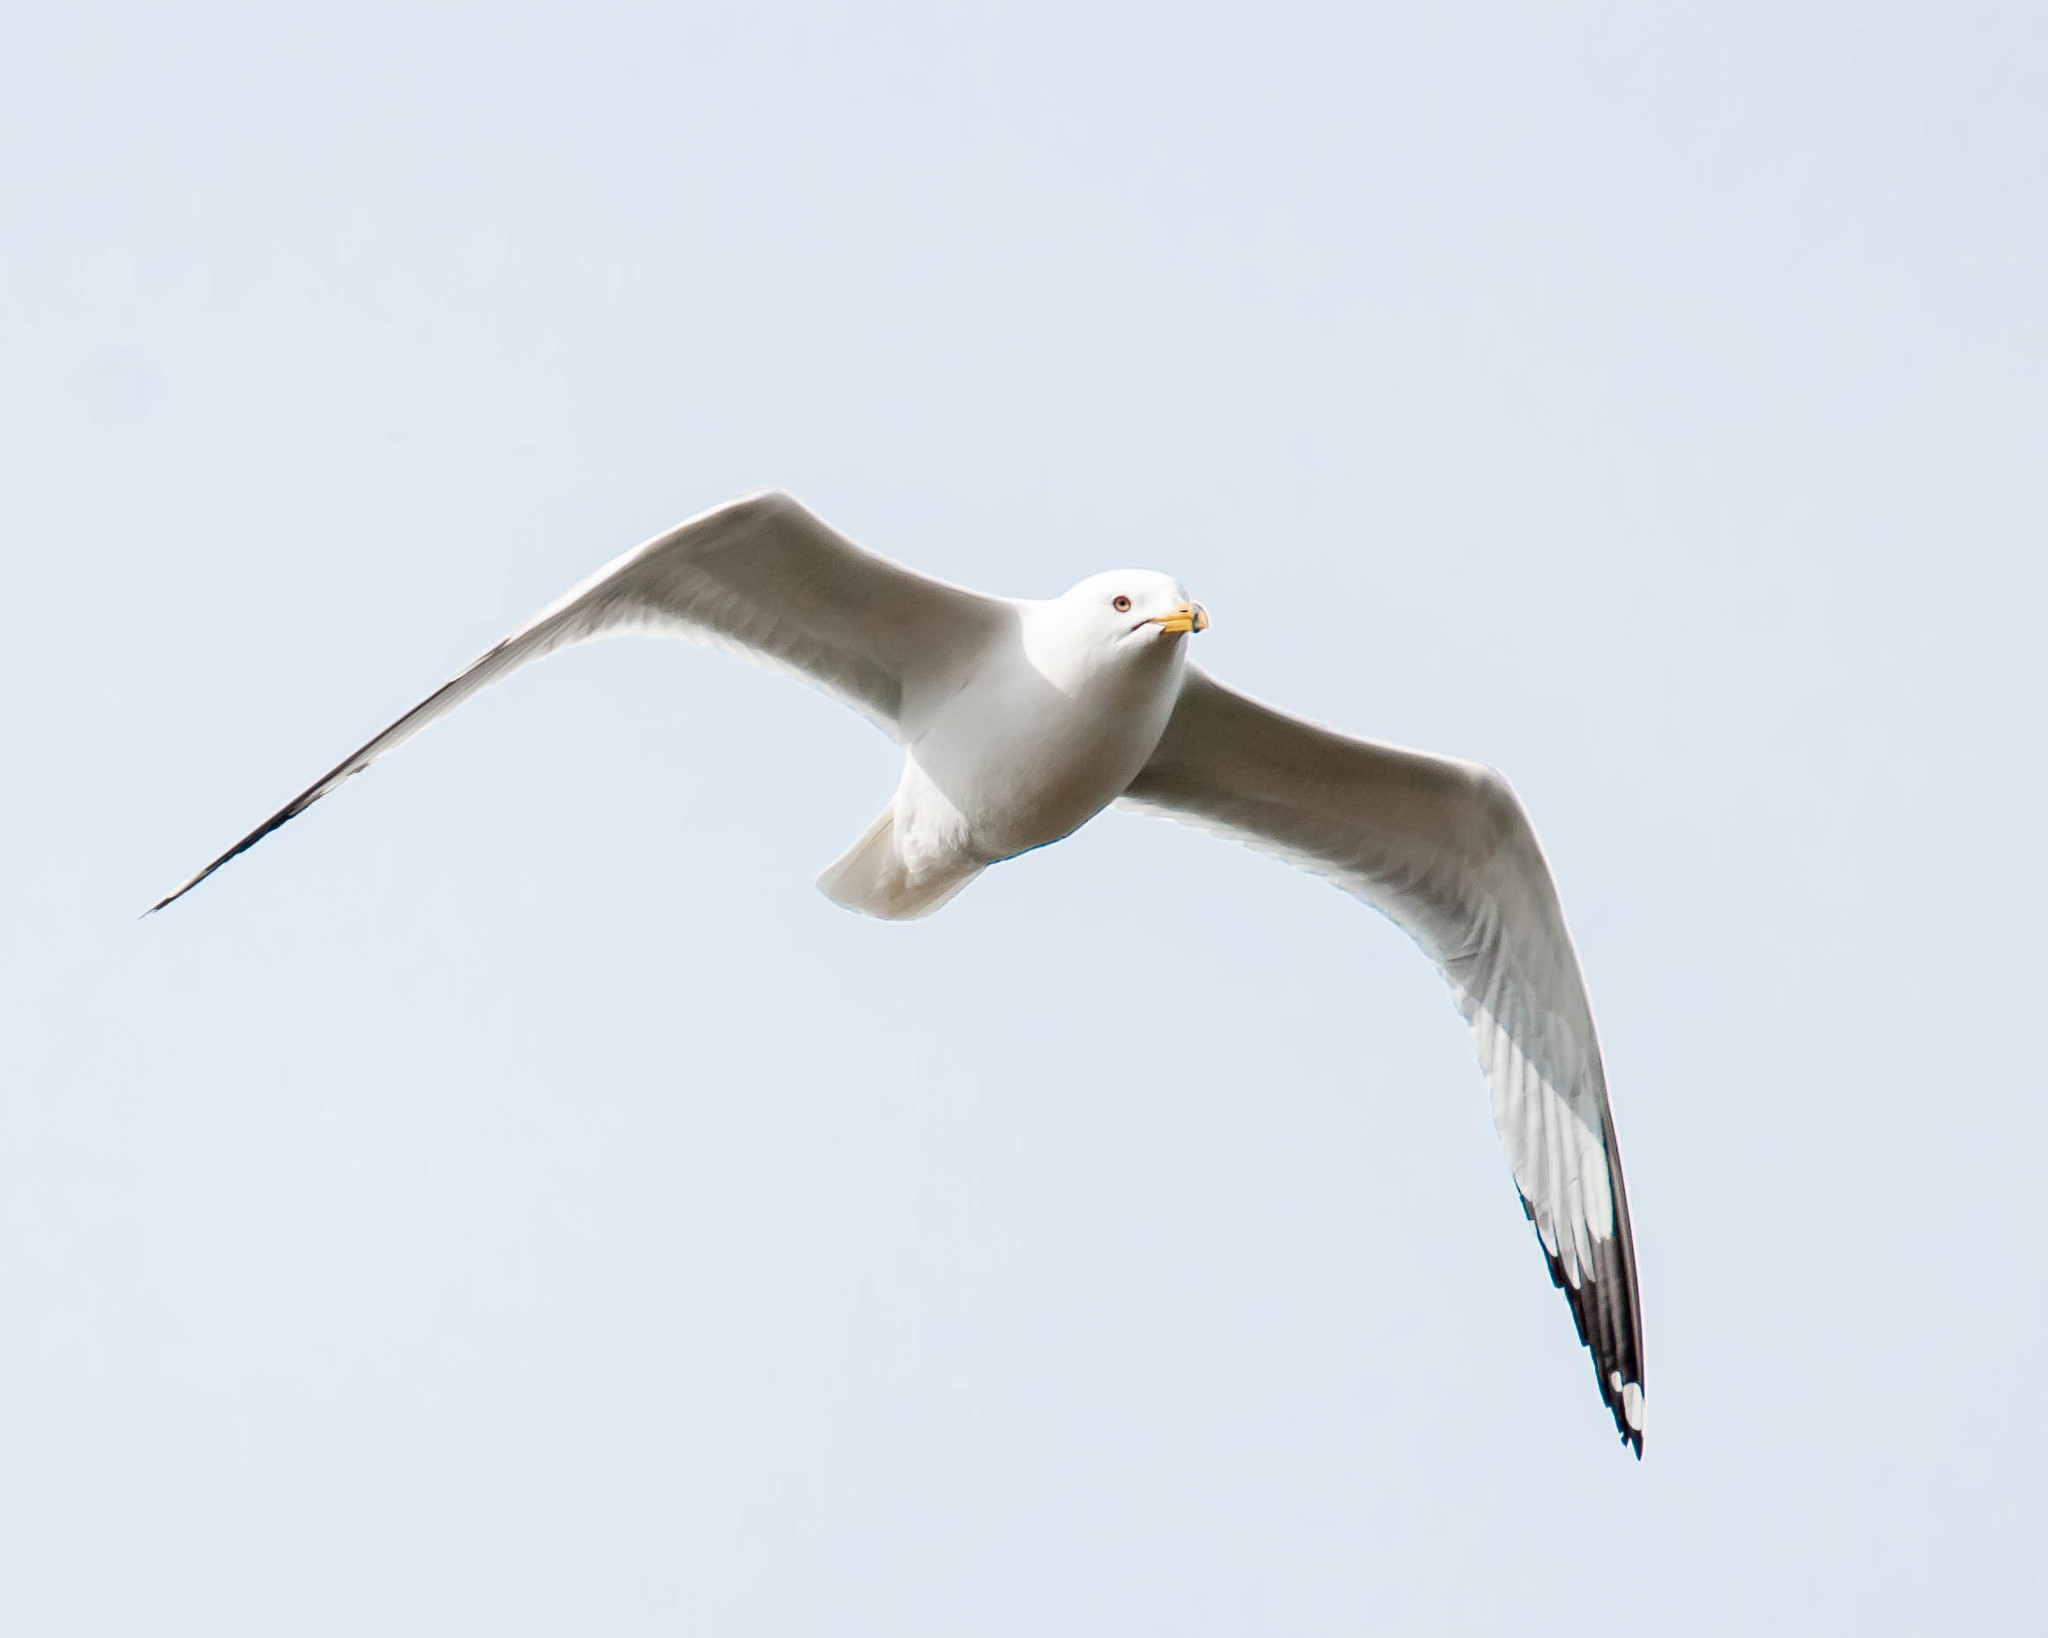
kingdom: Animalia
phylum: Chordata
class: Aves
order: Charadriiformes
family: Laridae
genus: Larus
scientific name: Larus delawarensis
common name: Ring-billed gull
